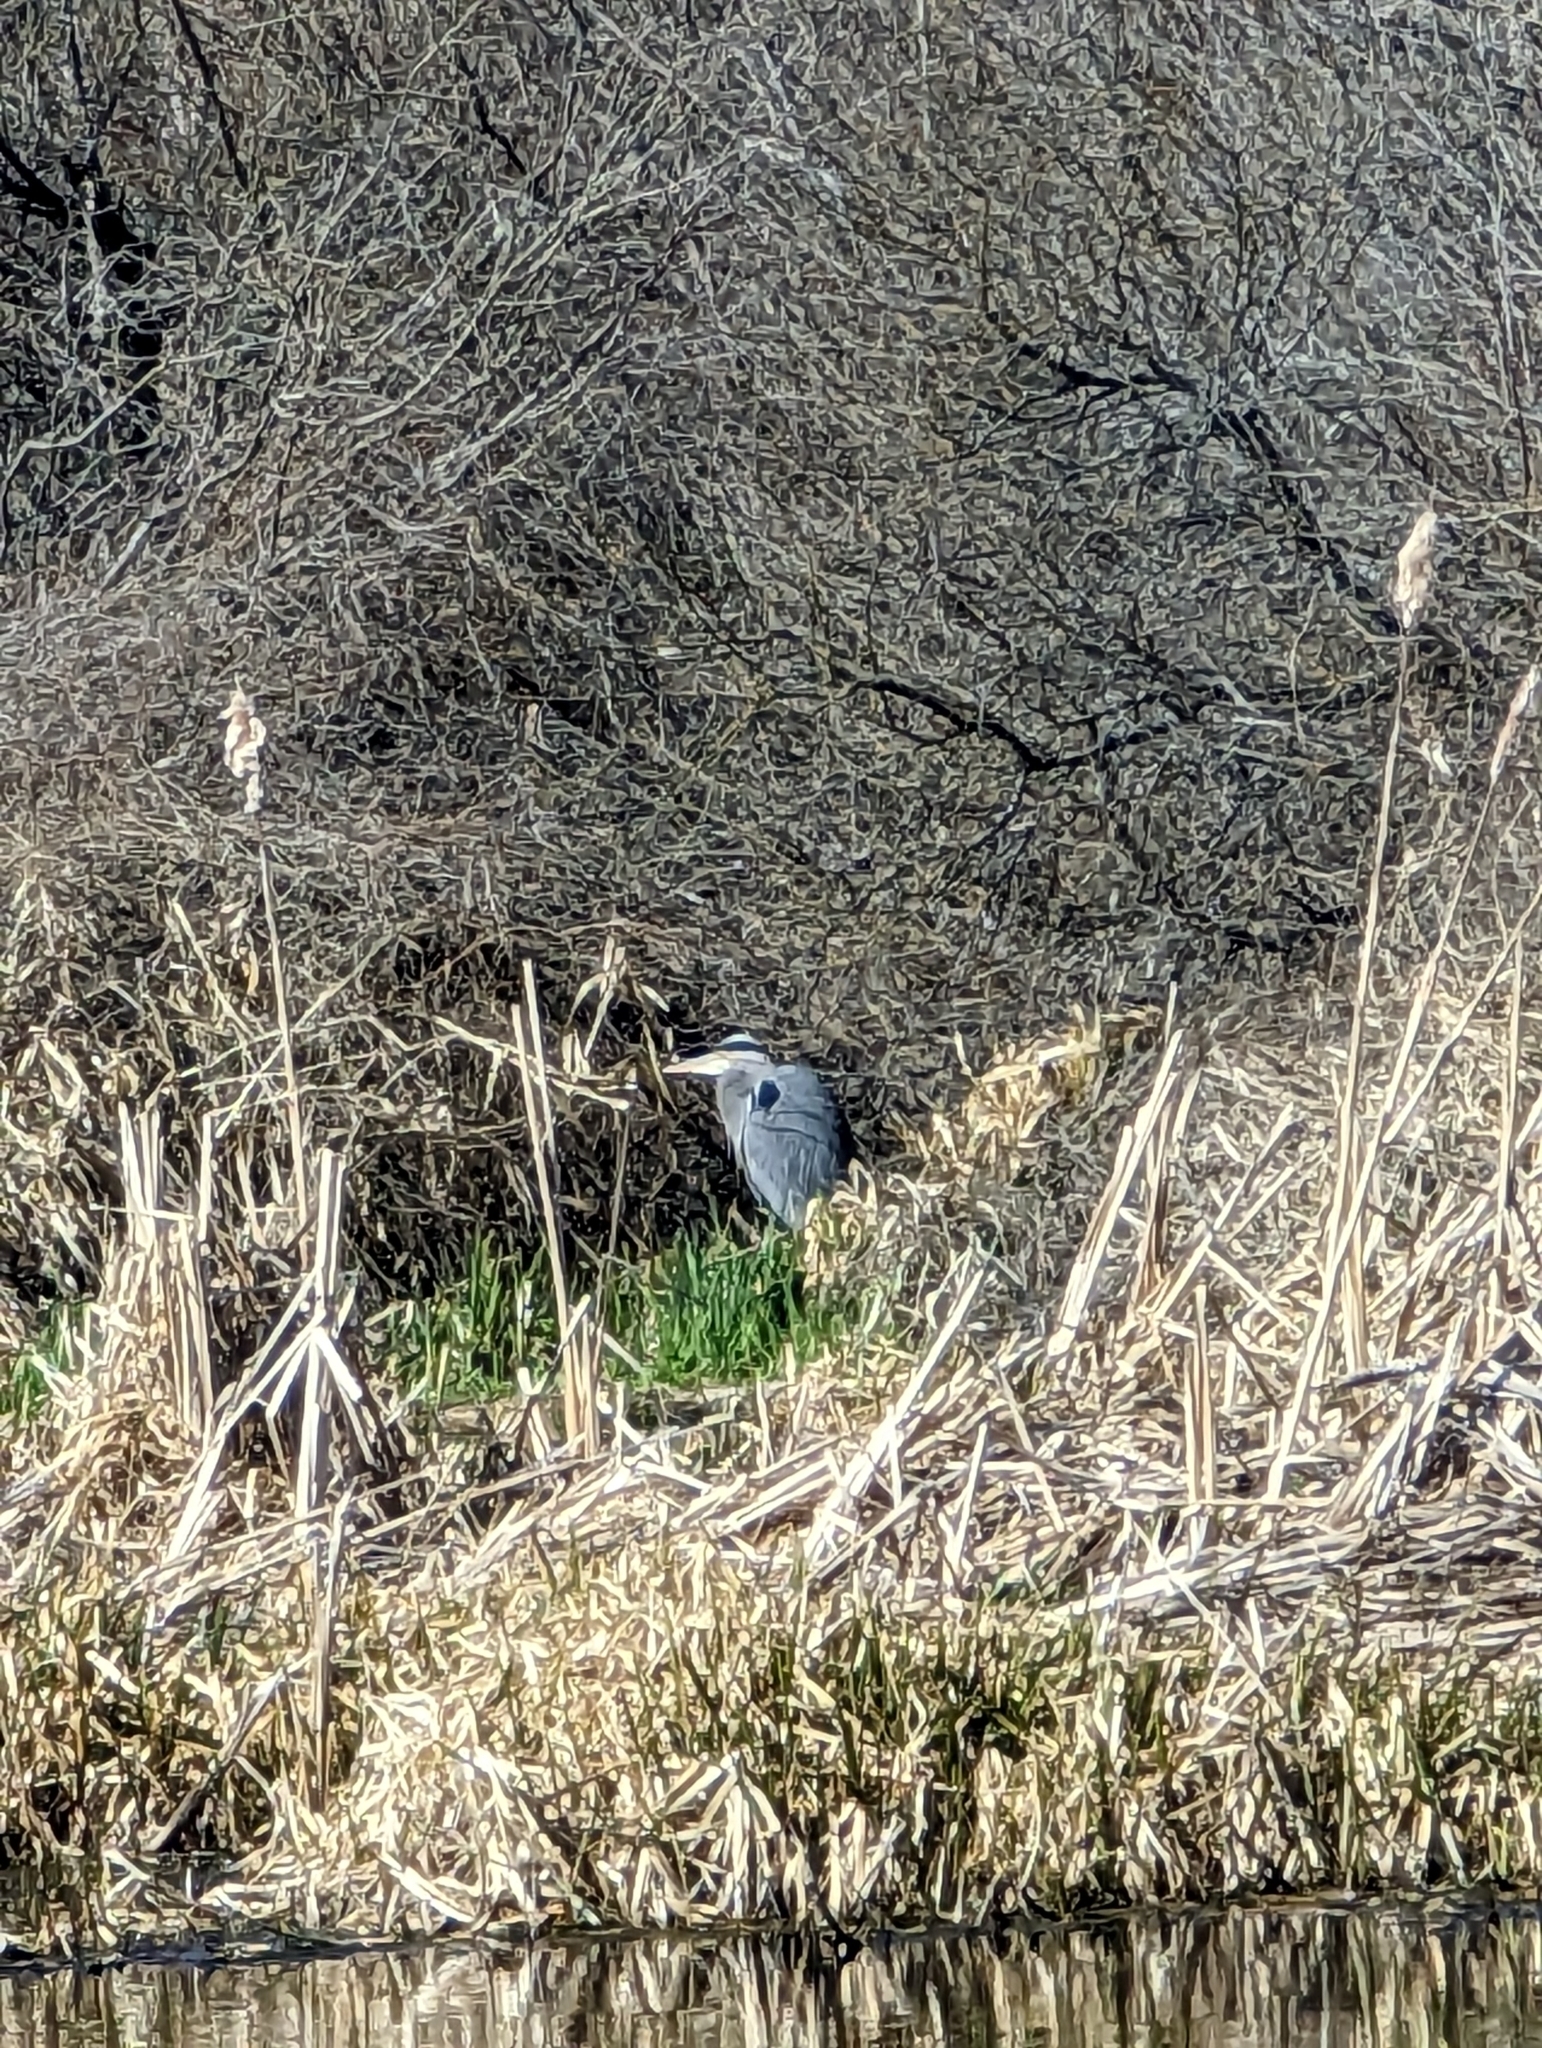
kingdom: Animalia
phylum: Chordata
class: Aves
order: Pelecaniformes
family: Ardeidae
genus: Ardea
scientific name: Ardea herodias
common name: Great blue heron
